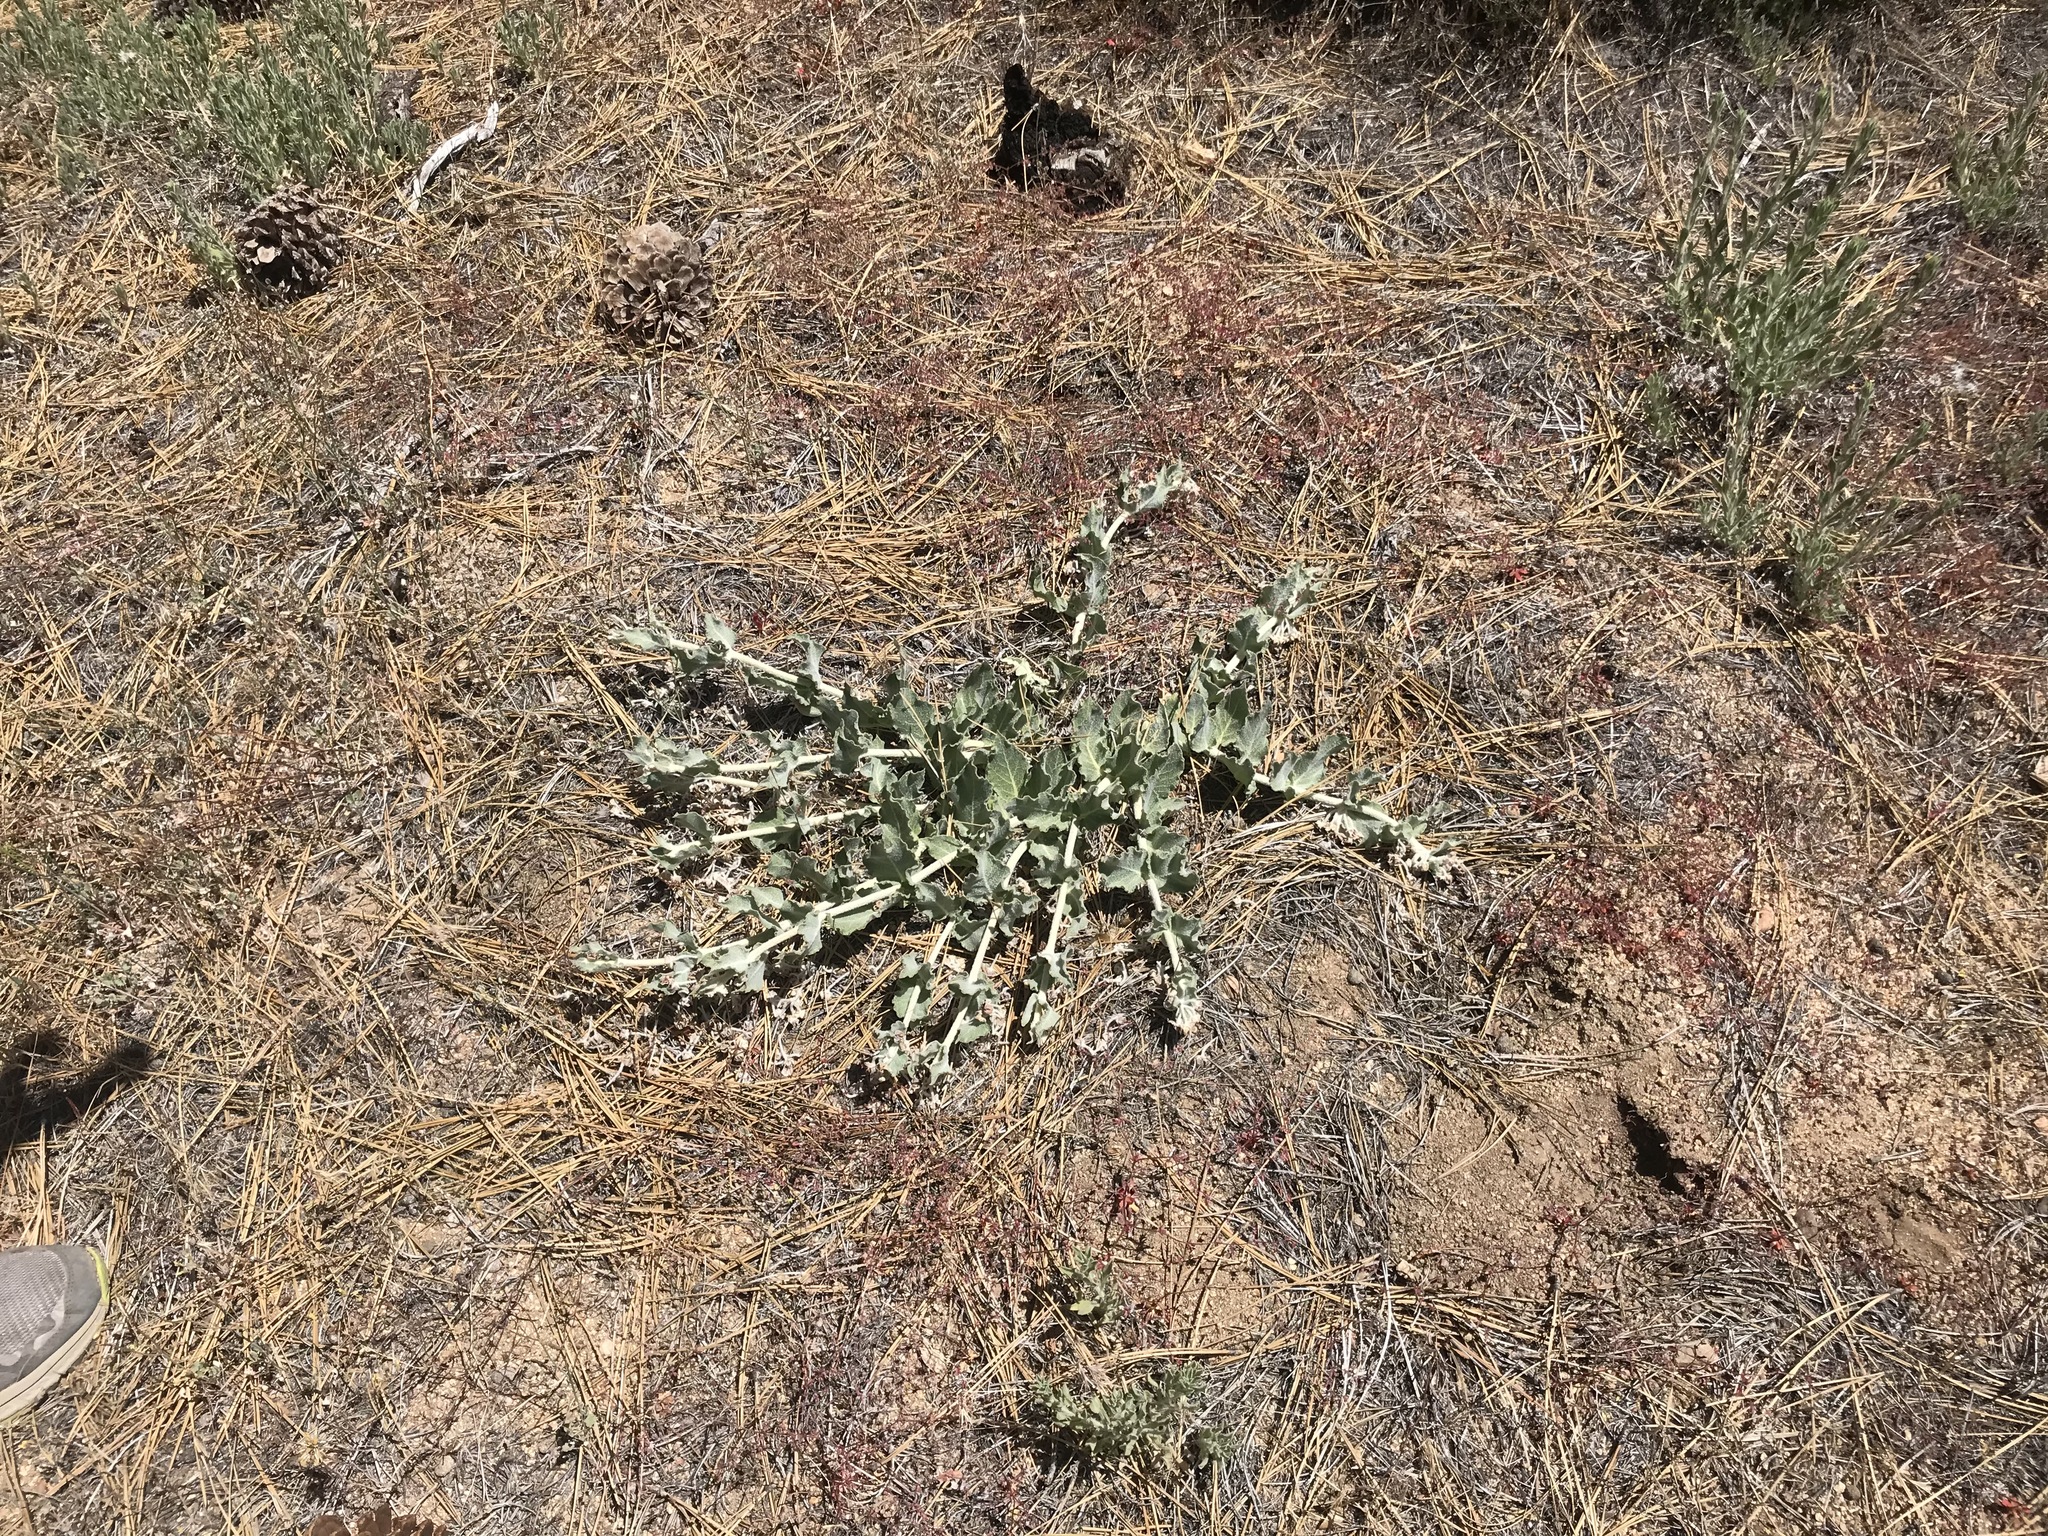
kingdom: Plantae
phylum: Tracheophyta
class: Magnoliopsida
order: Gentianales
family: Apocynaceae
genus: Asclepias
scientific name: Asclepias californica
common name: California milkweed
